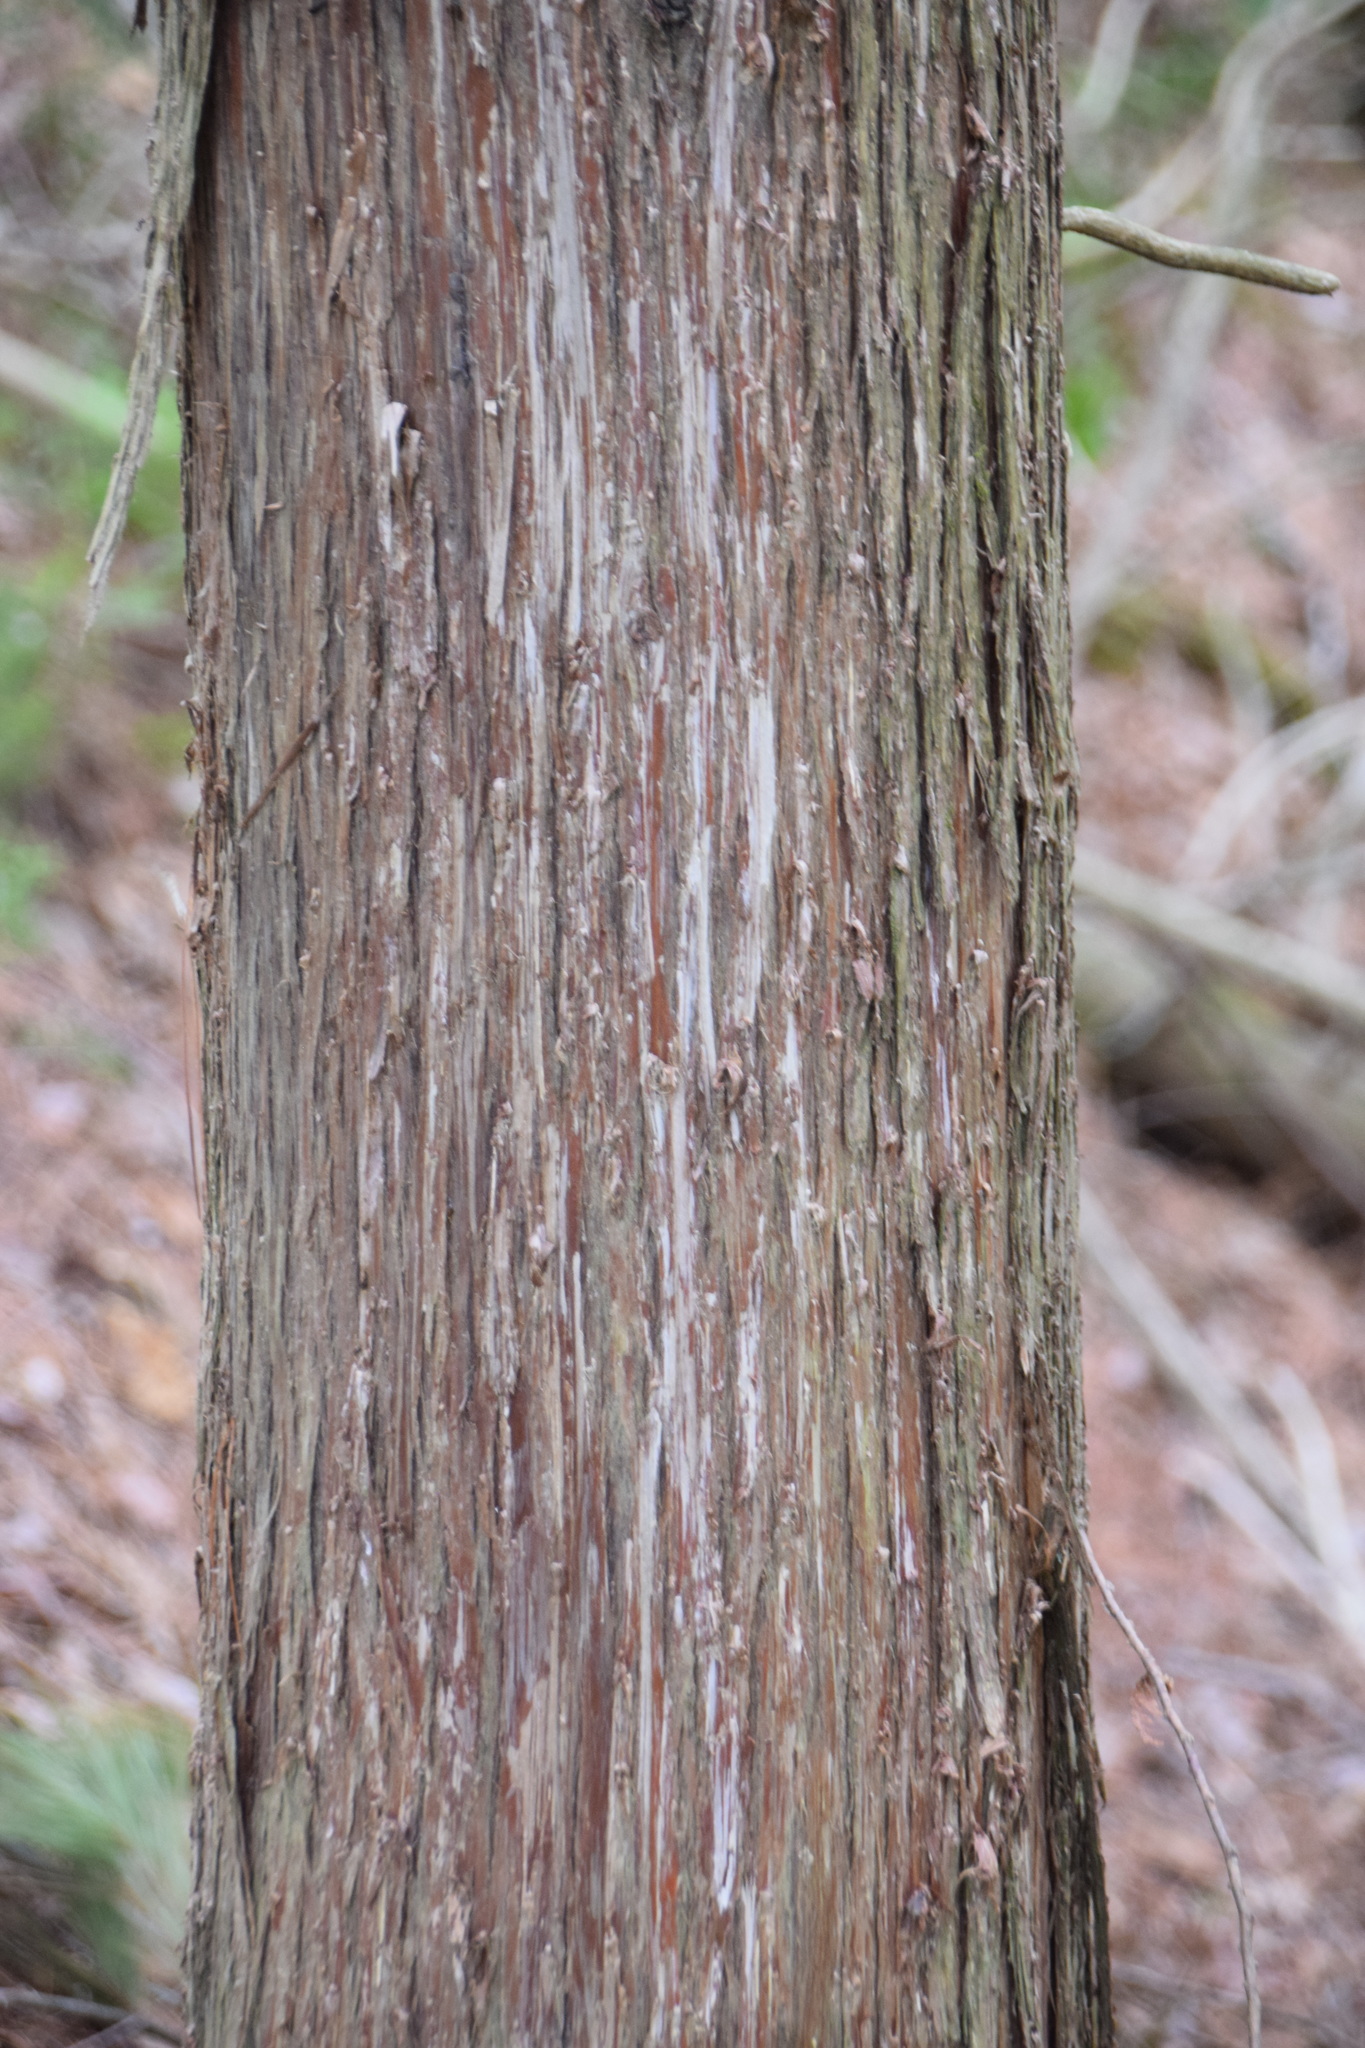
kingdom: Plantae
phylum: Tracheophyta
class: Pinopsida
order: Pinales
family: Cupressaceae
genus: Thuja
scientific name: Thuja occidentalis
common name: Northern white-cedar
